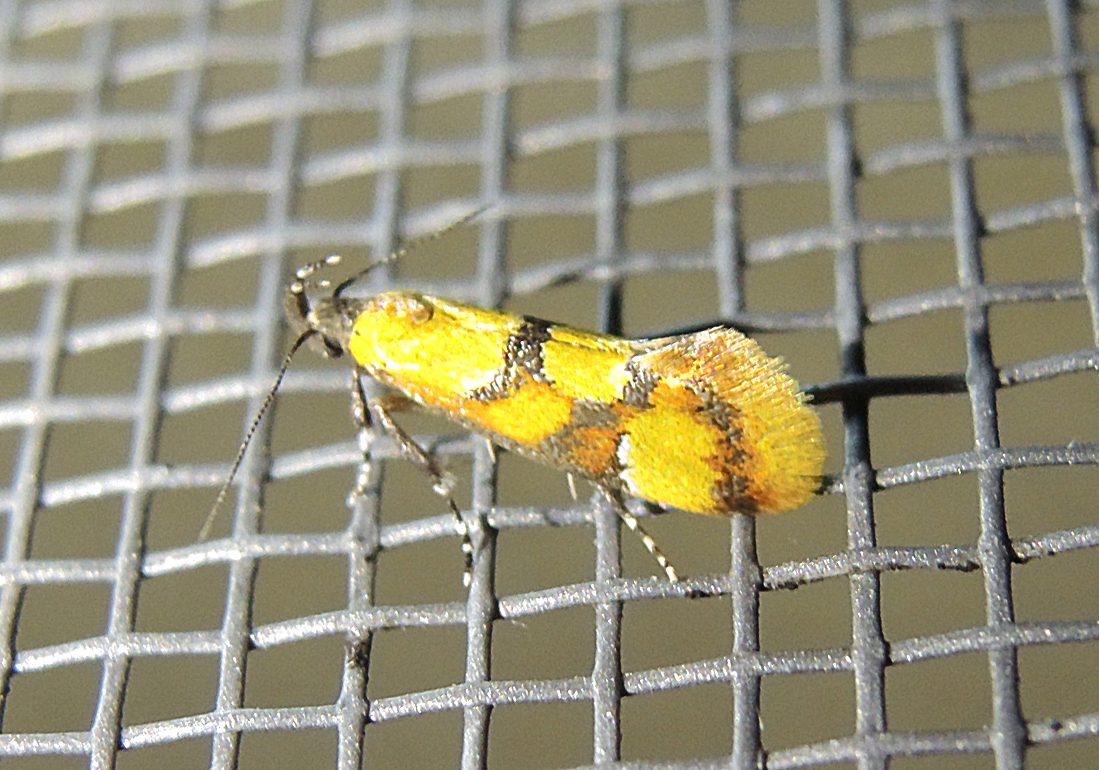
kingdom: Animalia
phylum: Arthropoda
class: Insecta
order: Lepidoptera
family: Oecophoridae
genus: Fabiola
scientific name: Fabiola icterinella
